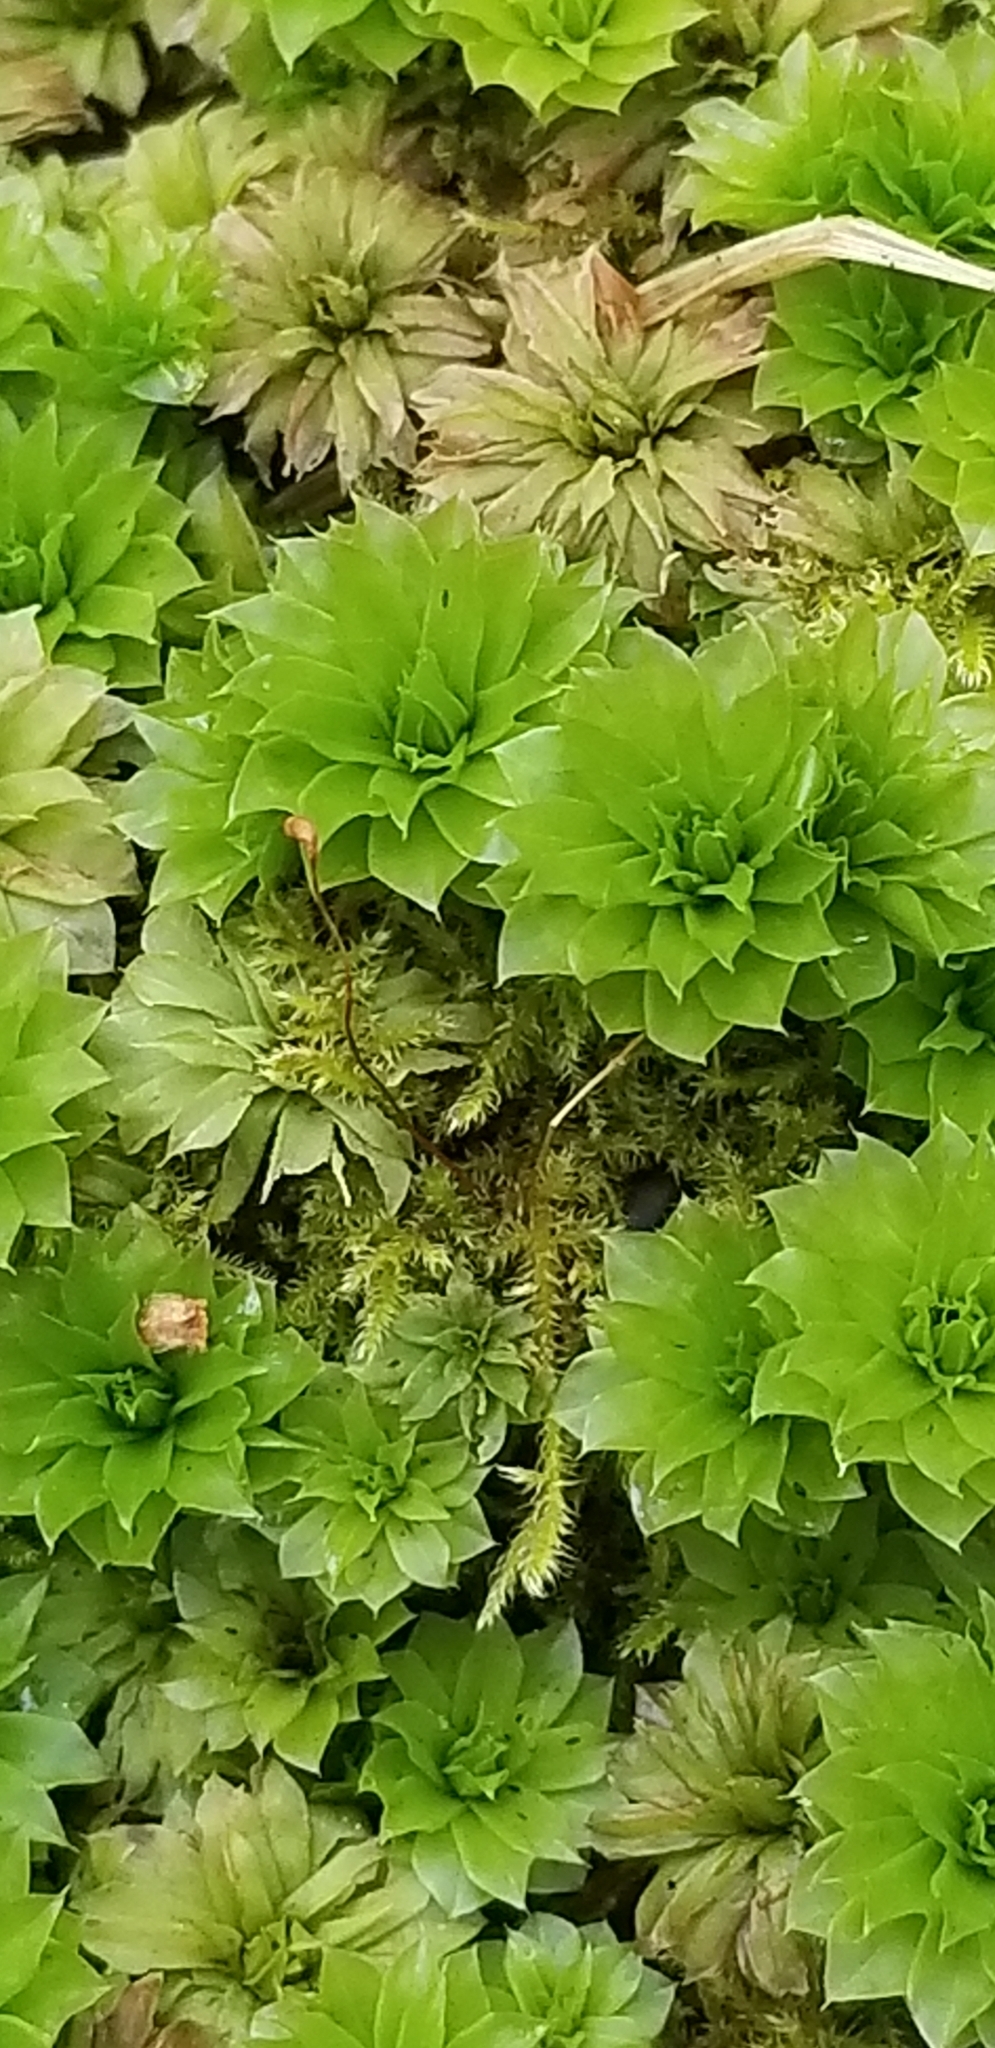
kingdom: Plantae
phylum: Bryophyta
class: Bryopsida
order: Bryales
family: Bryaceae
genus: Rhodobryum
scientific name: Rhodobryum ontariense
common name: Ontario rhodobryum moss
